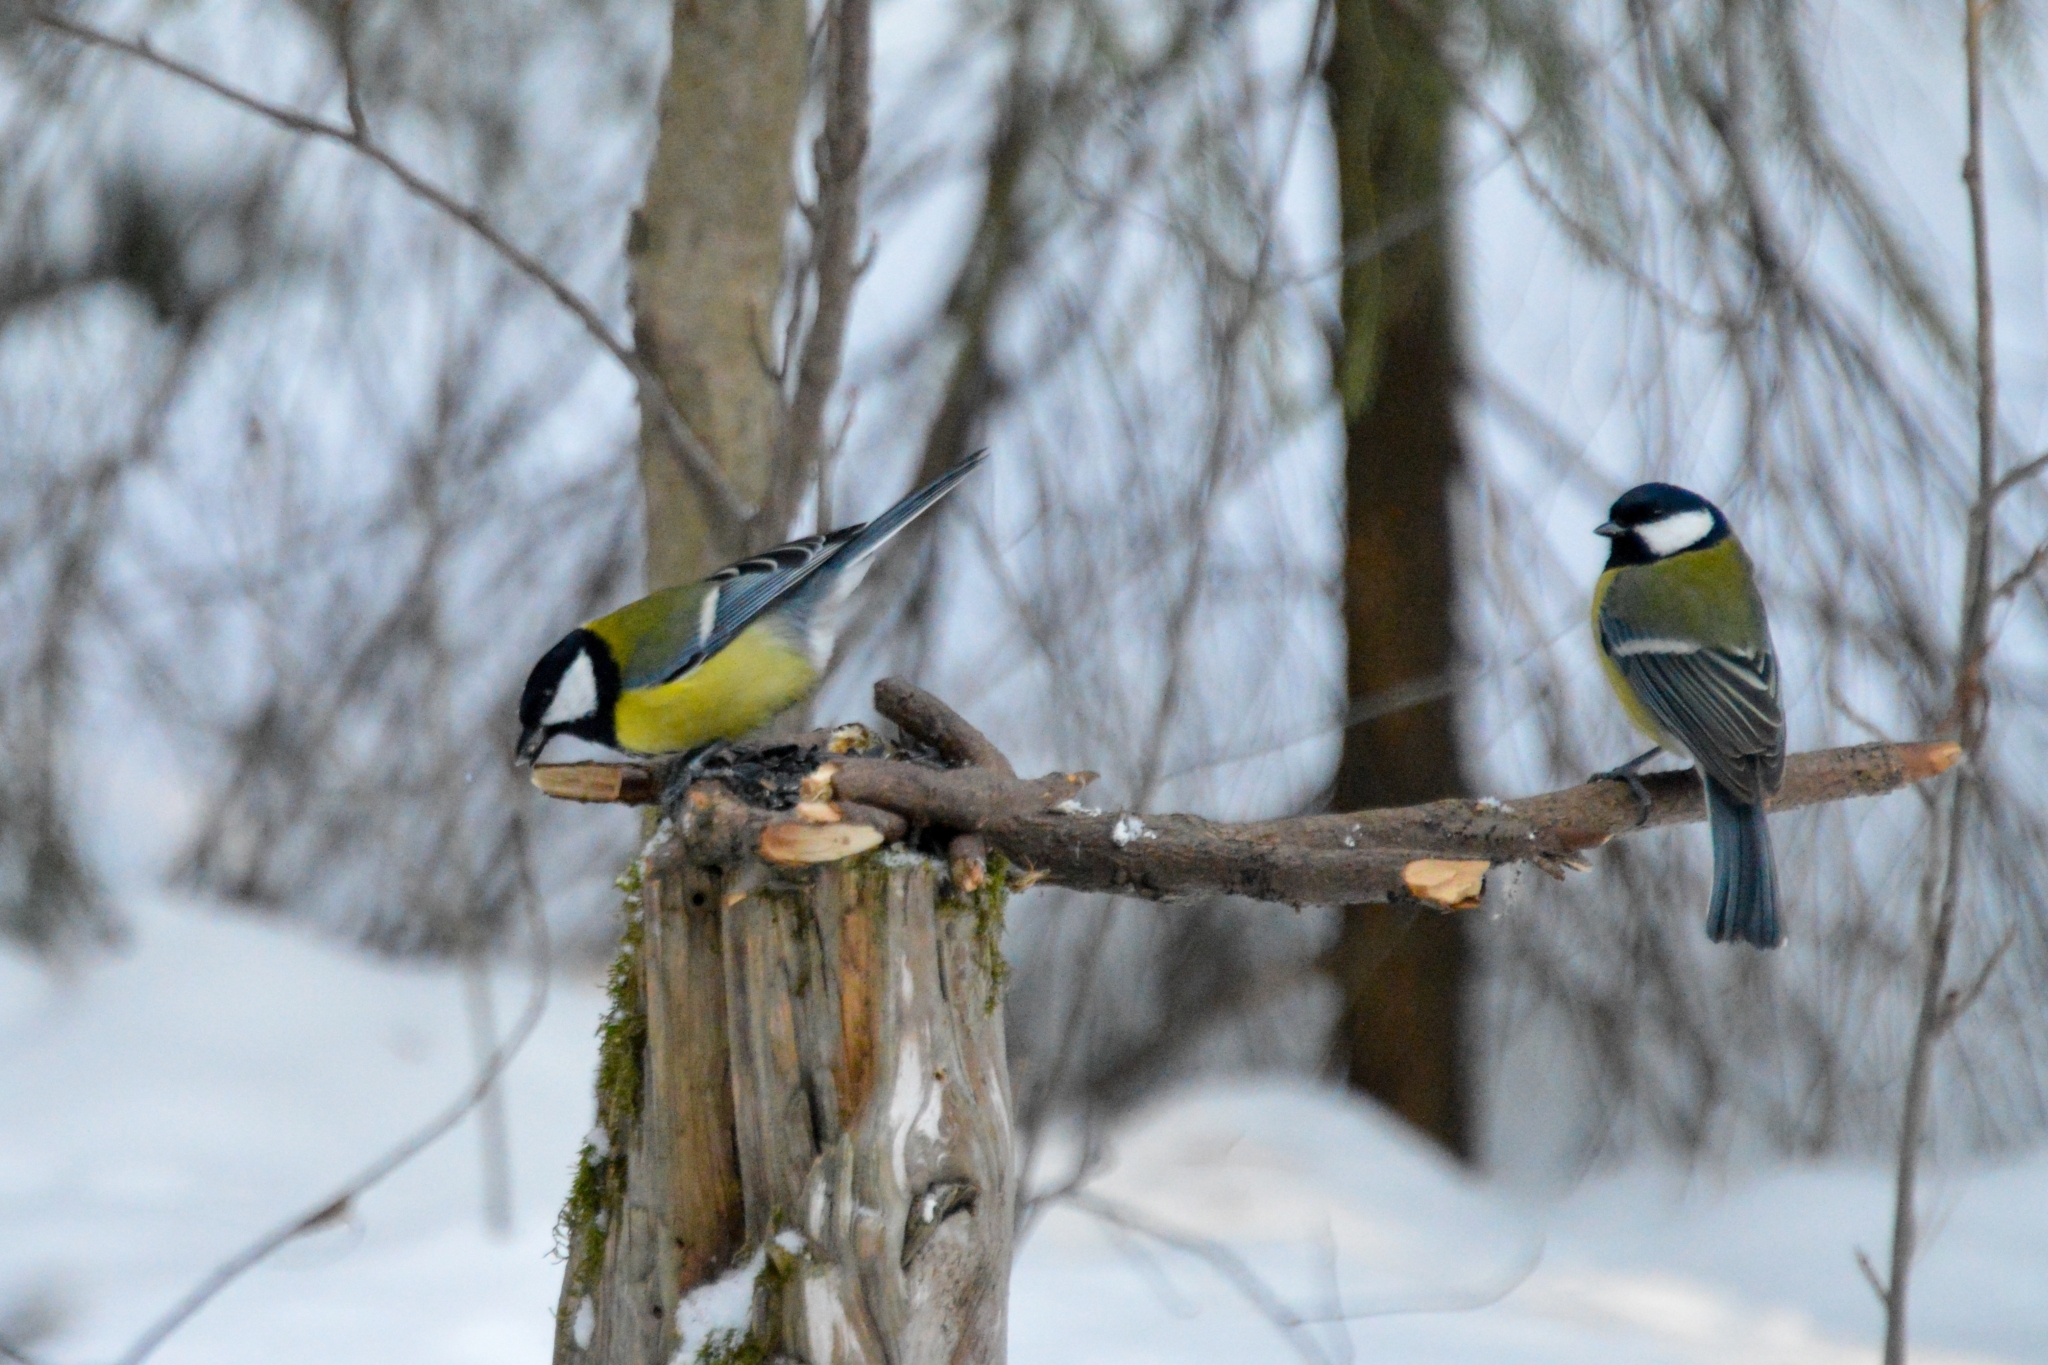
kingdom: Animalia
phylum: Chordata
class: Aves
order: Passeriformes
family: Paridae
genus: Parus
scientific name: Parus major
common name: Great tit
